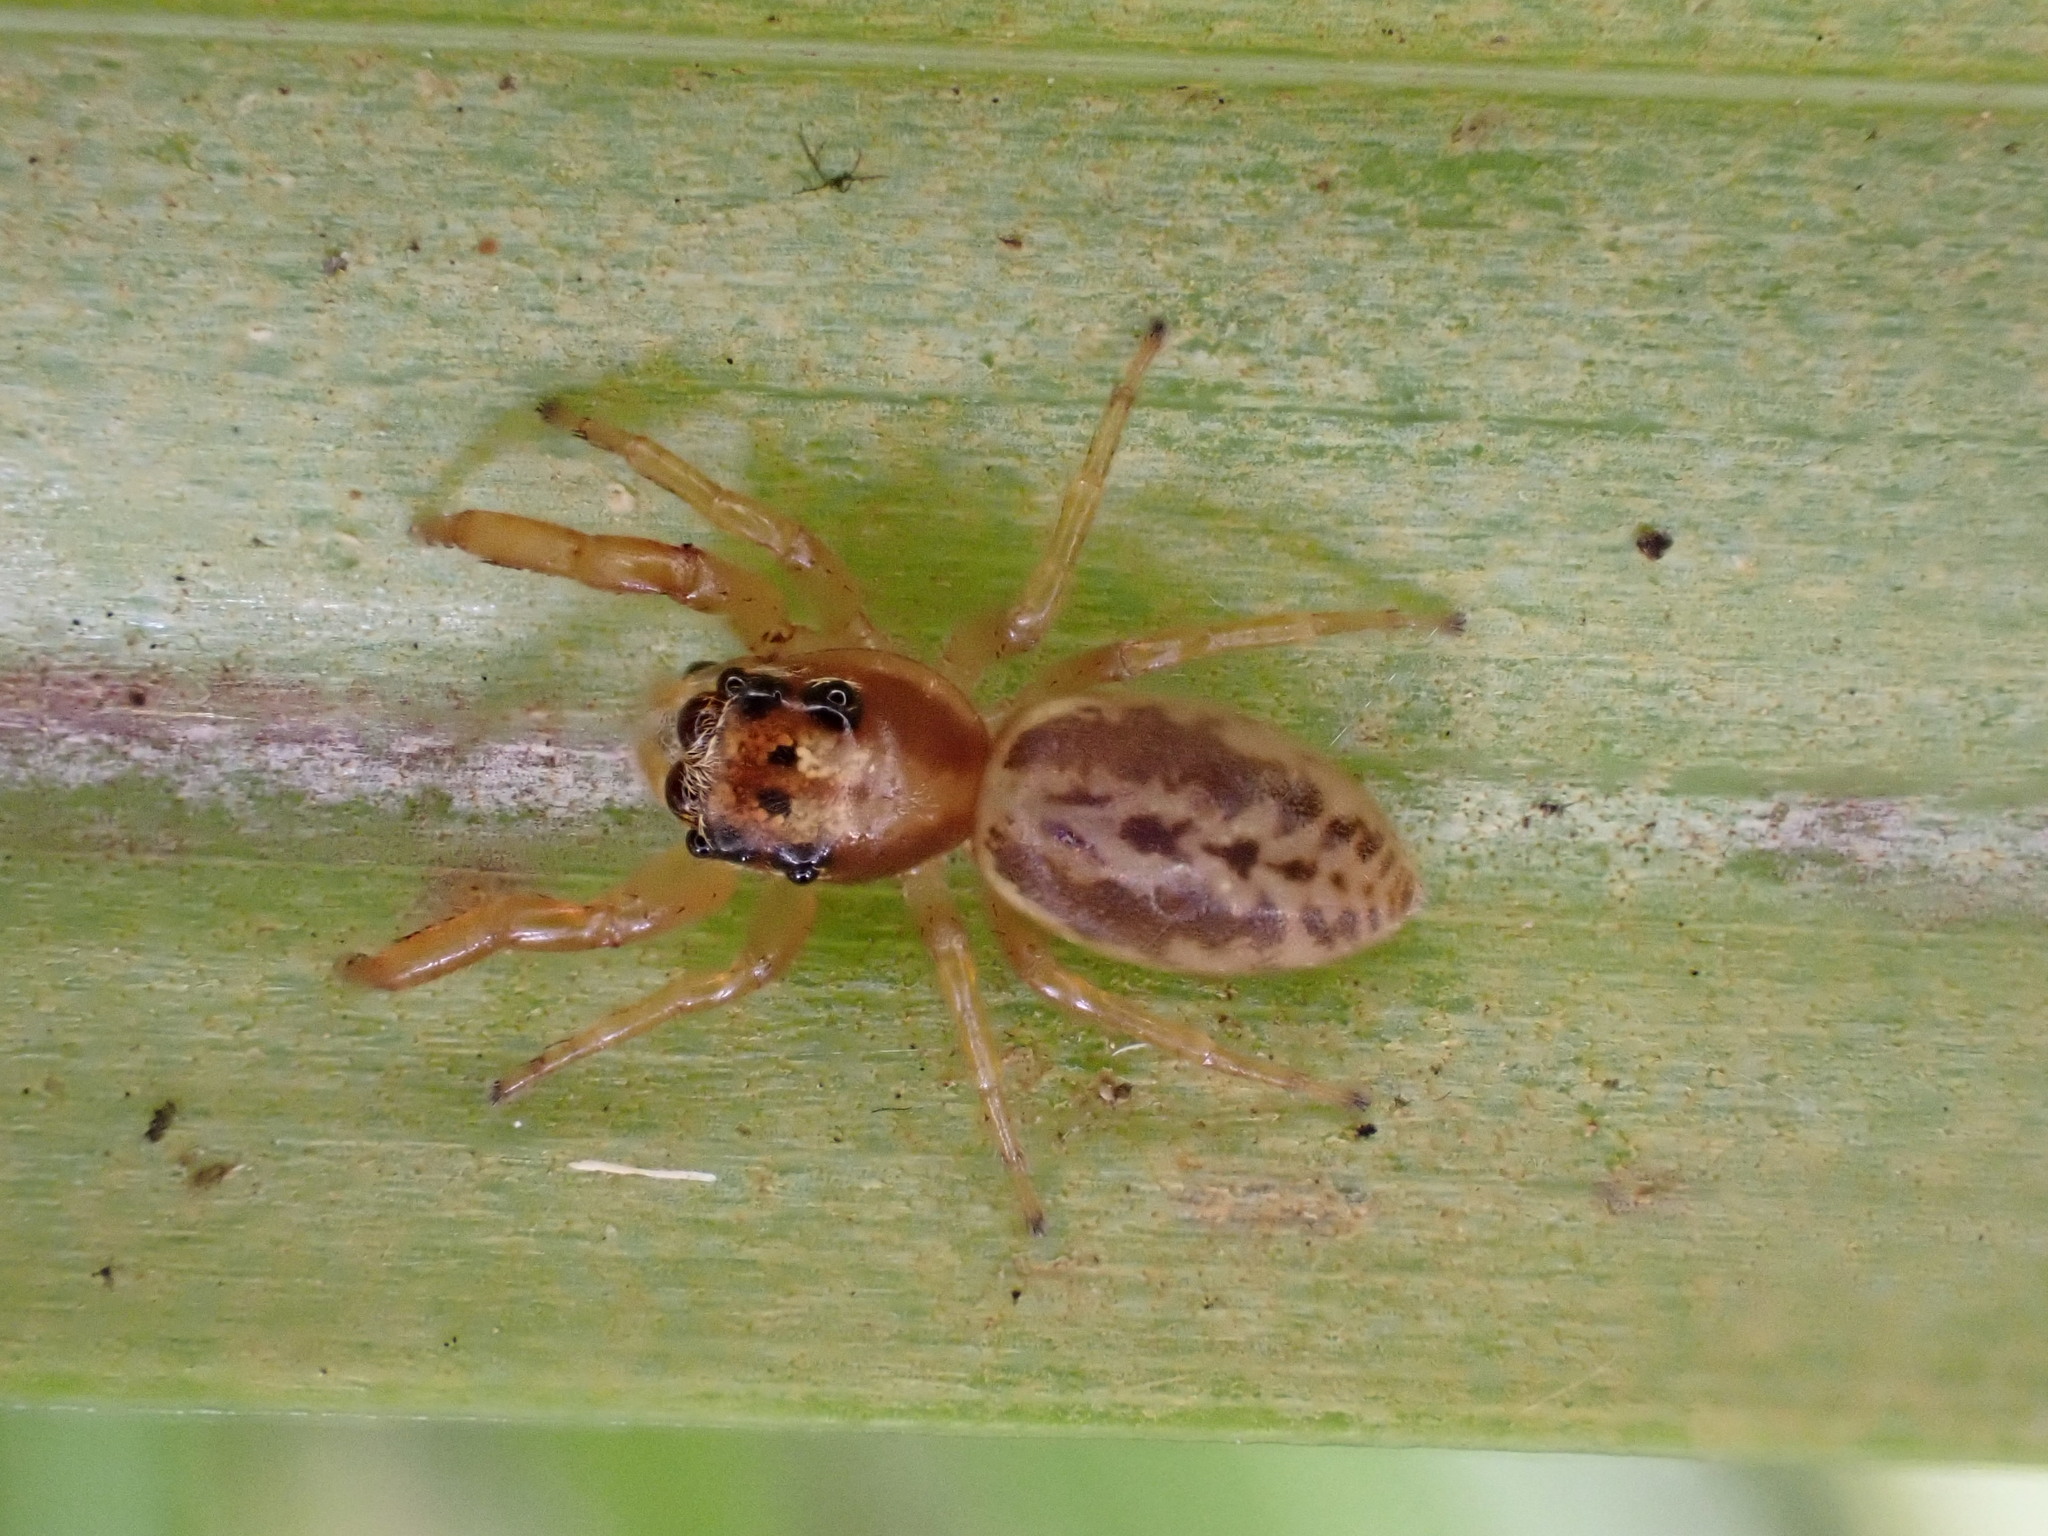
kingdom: Animalia
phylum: Arthropoda
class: Arachnida
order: Araneae
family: Salticidae
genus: Trite
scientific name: Trite mustilina
